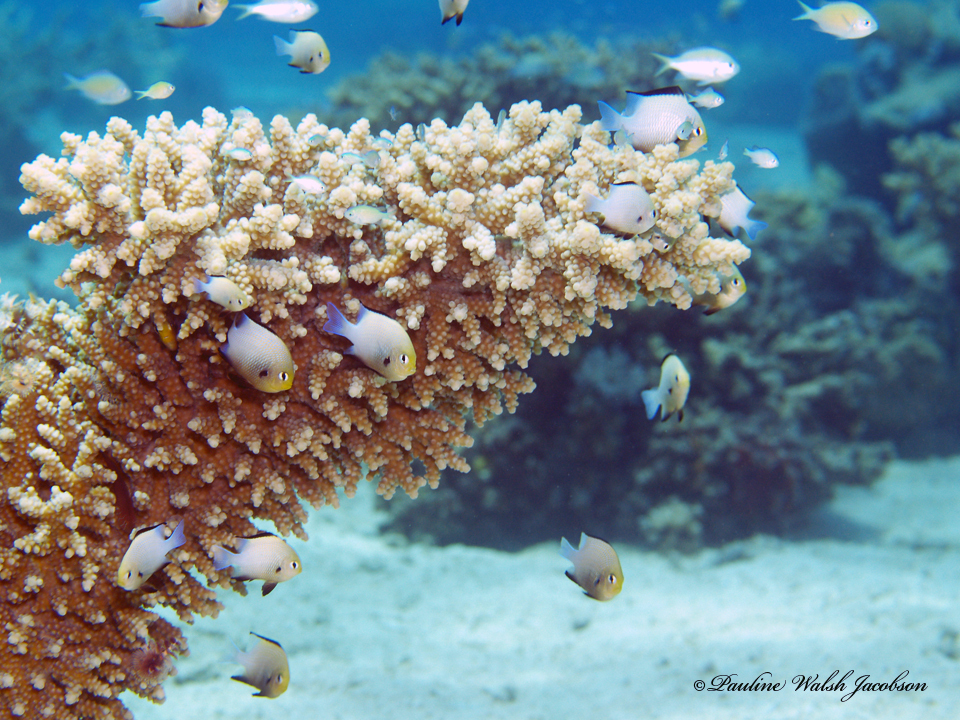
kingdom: Animalia
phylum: Chordata
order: Perciformes
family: Pomacentridae
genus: Dascyllus
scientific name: Dascyllus marginatus
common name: Red sea dascyllus
